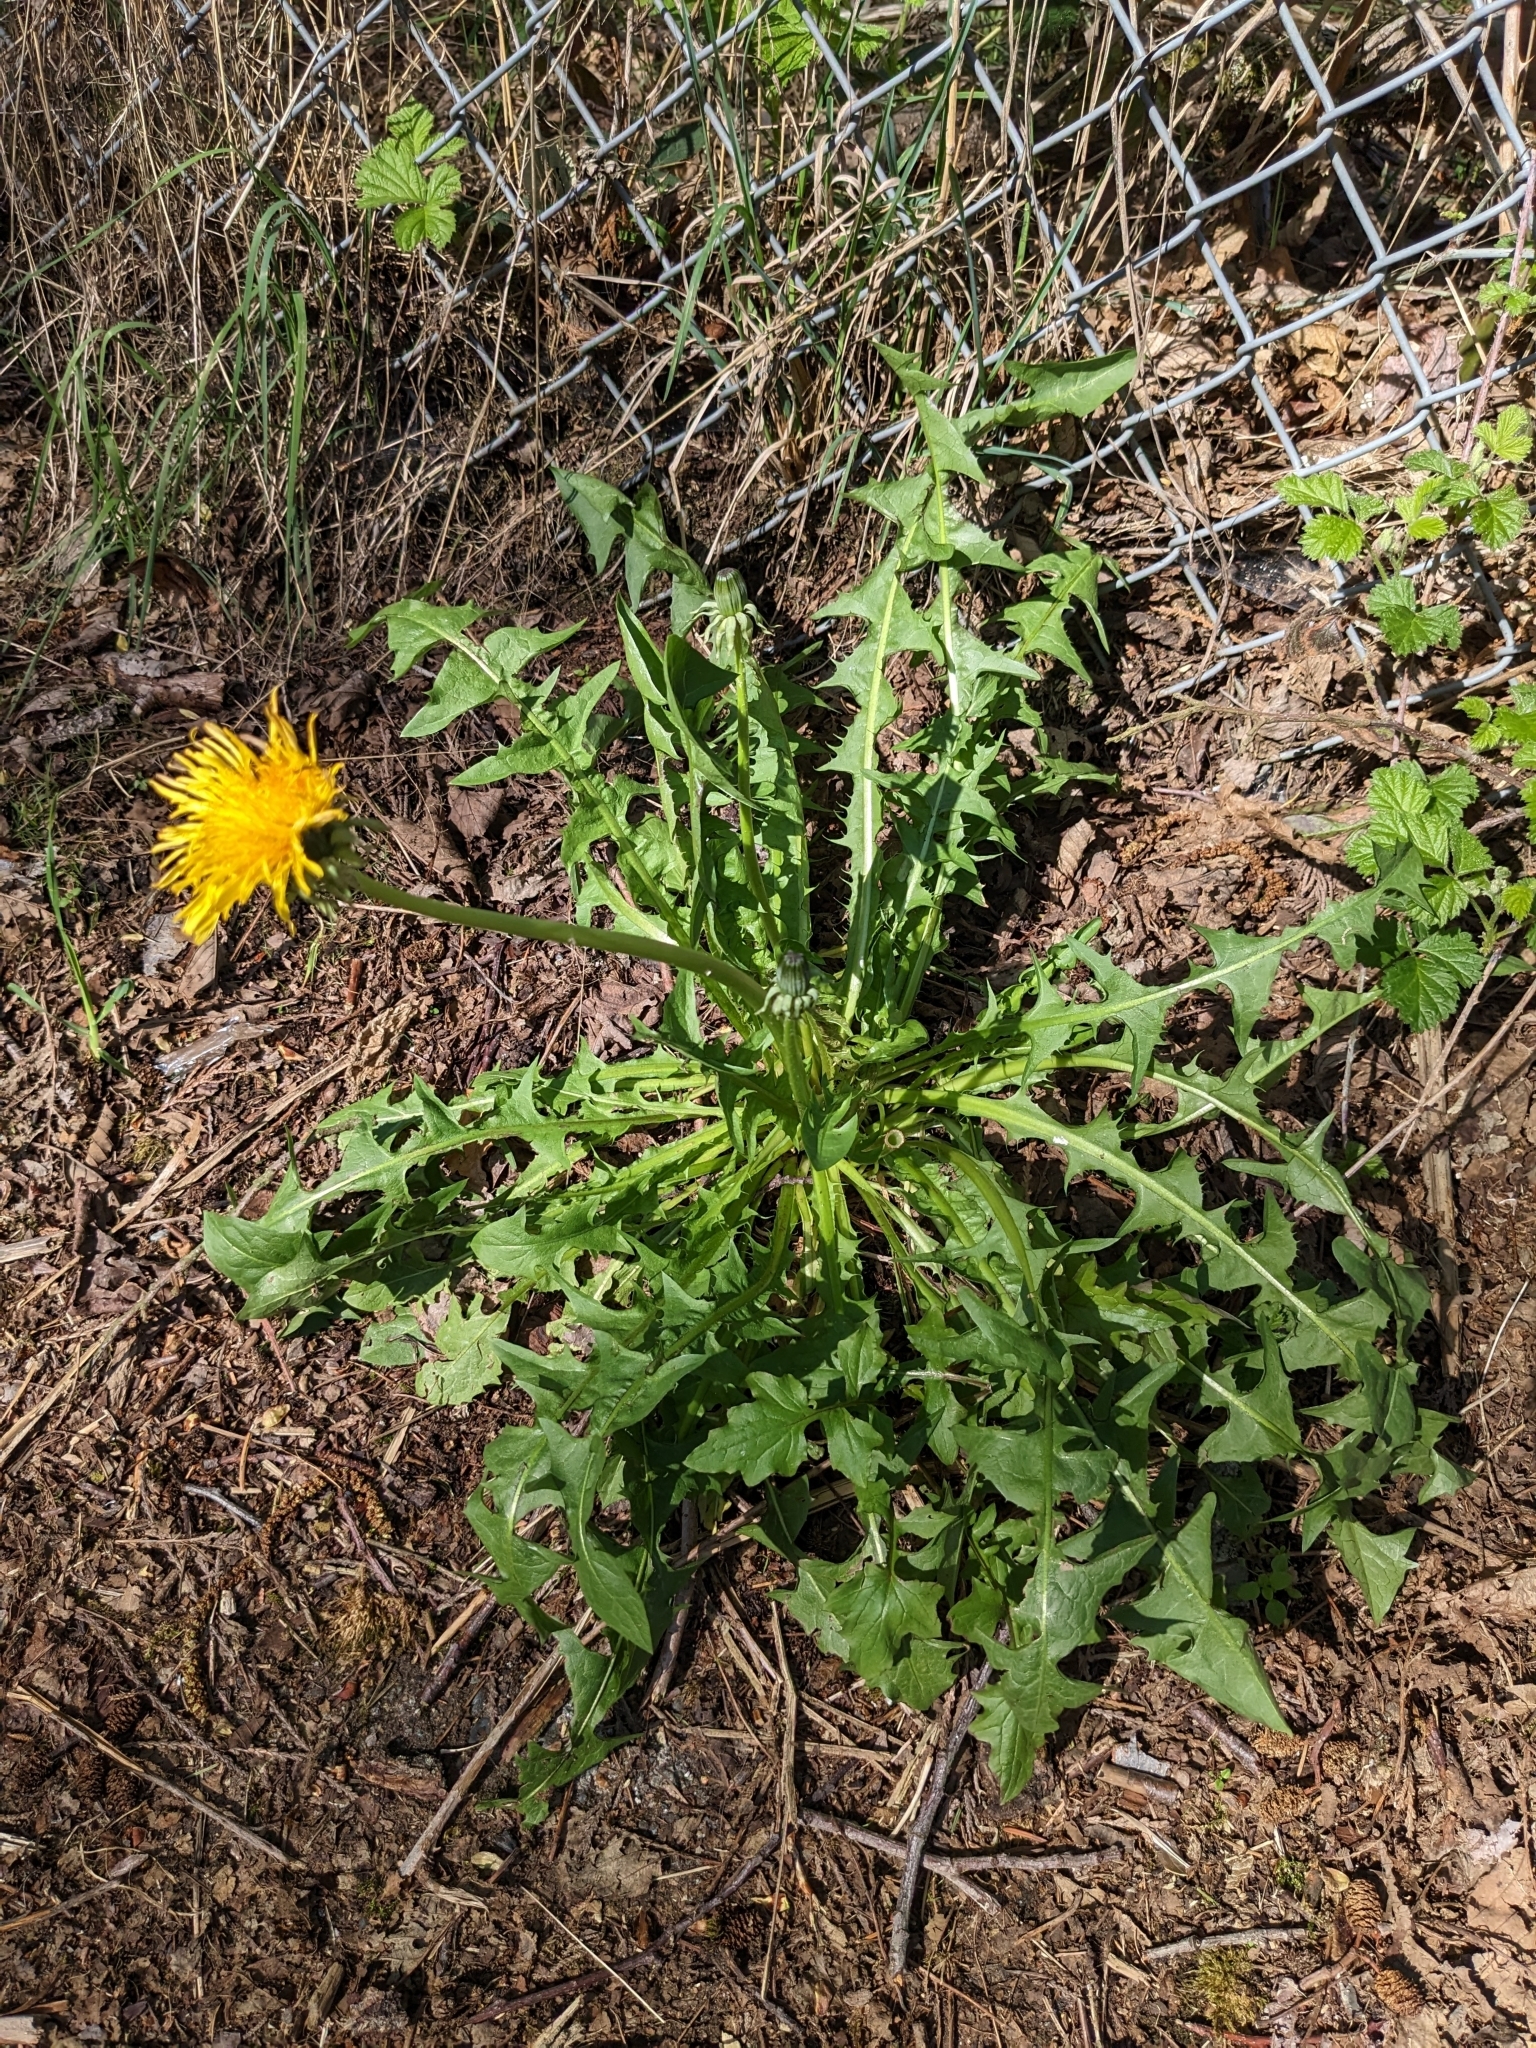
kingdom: Plantae
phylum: Tracheophyta
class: Magnoliopsida
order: Asterales
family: Asteraceae
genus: Taraxacum
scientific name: Taraxacum officinale
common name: Common dandelion
